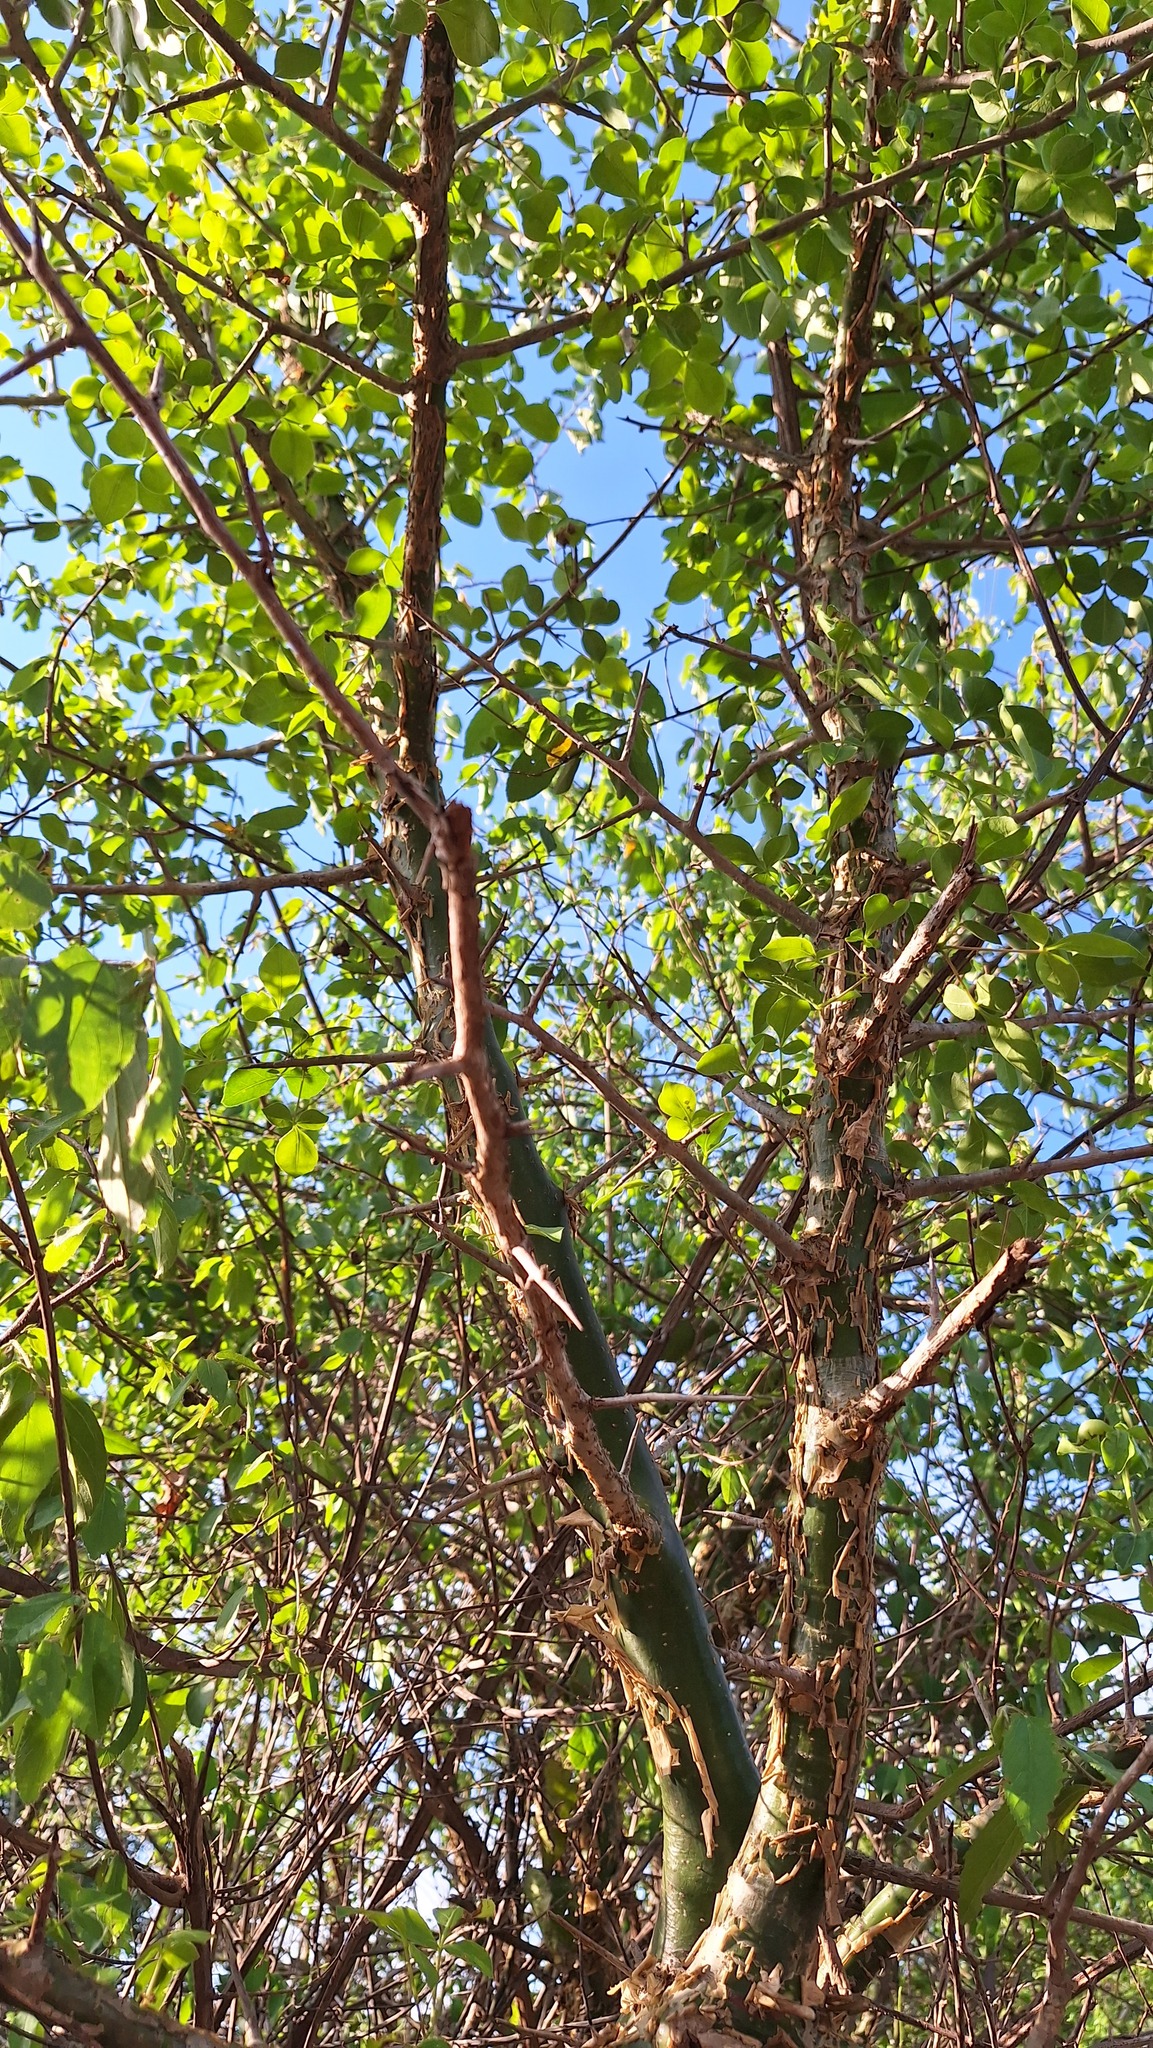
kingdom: Plantae
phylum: Tracheophyta
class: Magnoliopsida
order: Sapindales
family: Burseraceae
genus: Commiphora
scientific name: Commiphora harveyi
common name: Copper-stem corkwood
